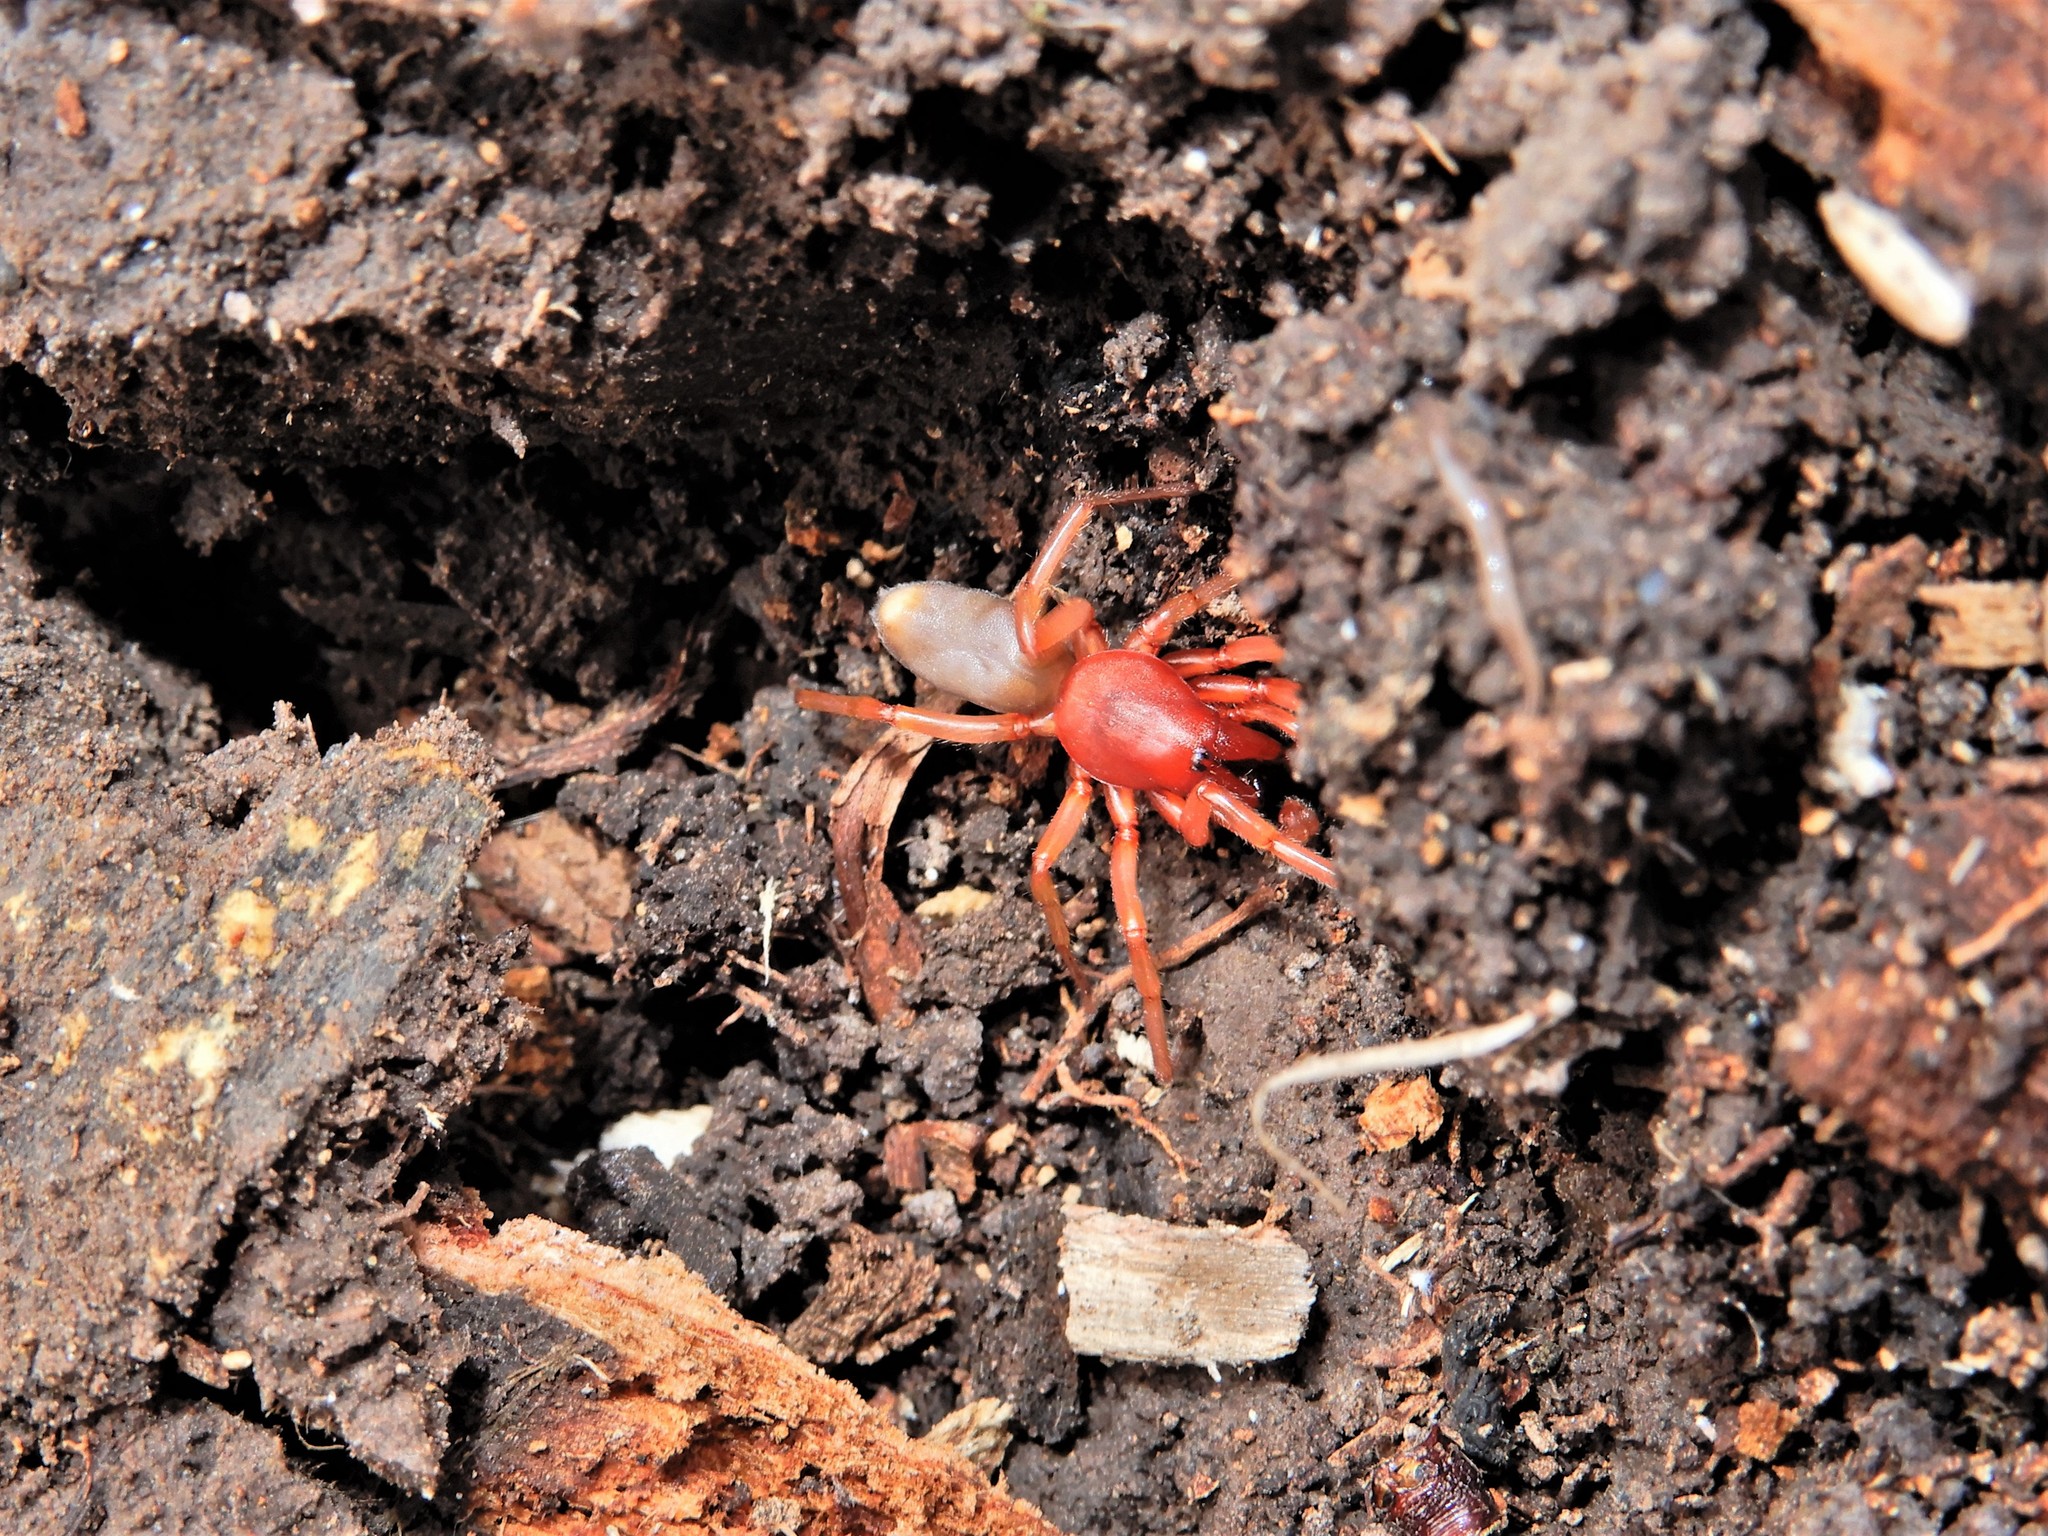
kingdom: Animalia
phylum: Arthropoda
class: Arachnida
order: Araneae
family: Dysderidae
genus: Dysdera
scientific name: Dysdera crocata
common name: Woodlouse spider
